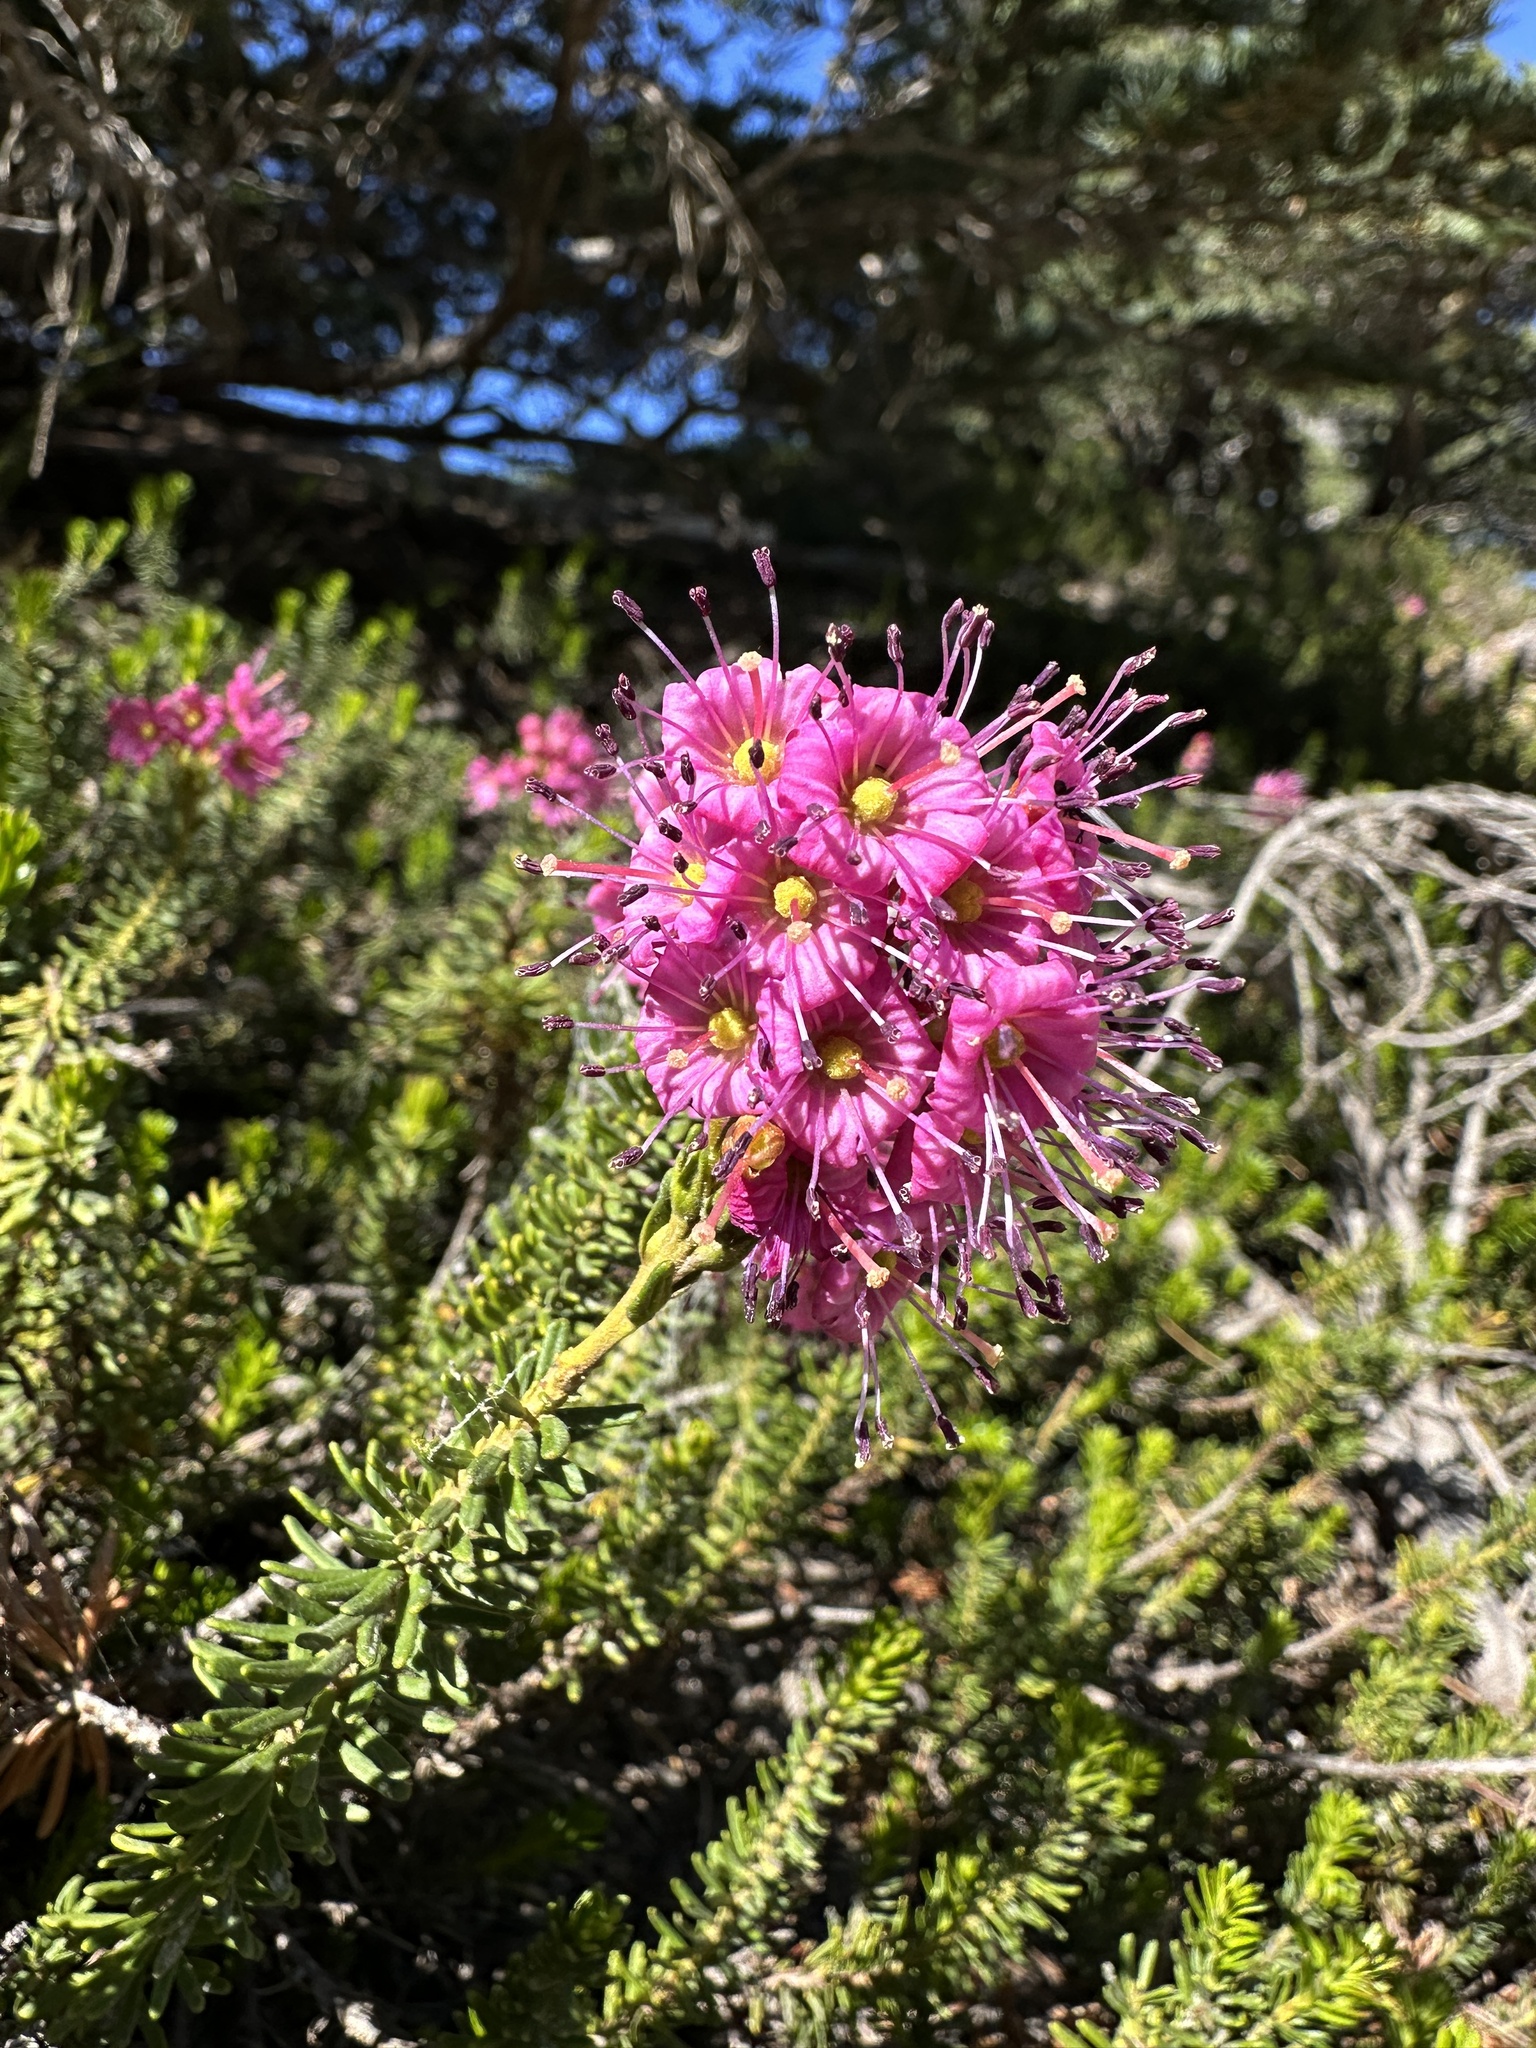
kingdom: Plantae
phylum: Tracheophyta
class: Magnoliopsida
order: Ericales
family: Ericaceae
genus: Phyllodoce
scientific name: Phyllodoce breweri
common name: Brewer's mountain-heather
